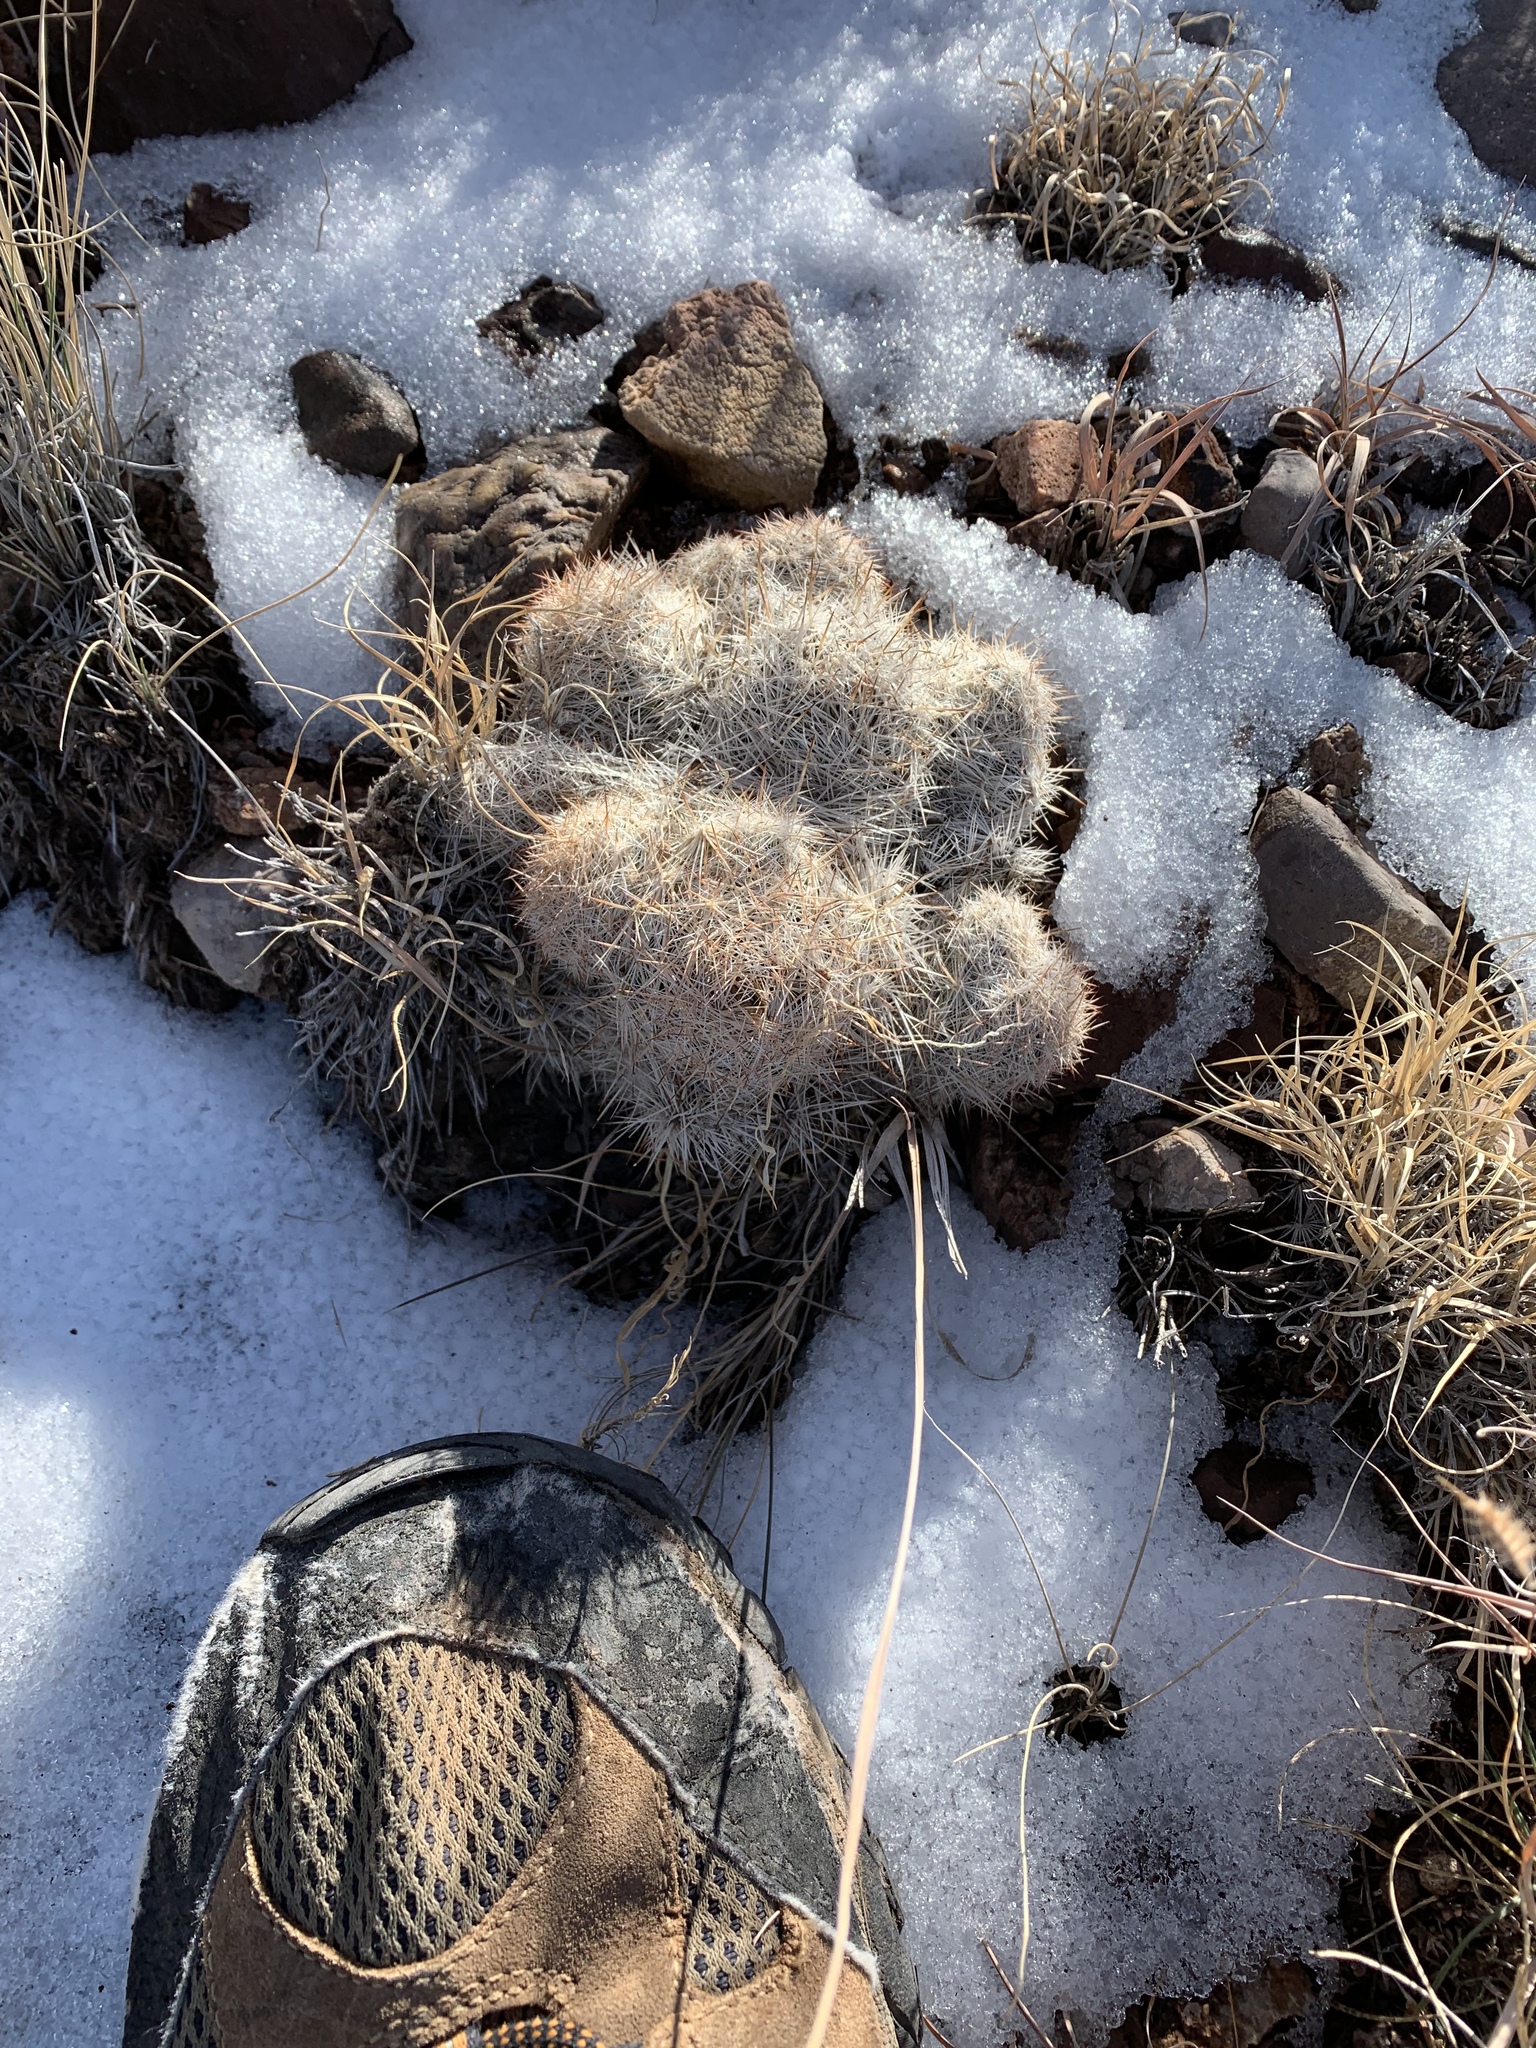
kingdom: Plantae
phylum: Tracheophyta
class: Magnoliopsida
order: Caryophyllales
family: Cactaceae
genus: Pelecyphora
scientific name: Pelecyphora vivipara
